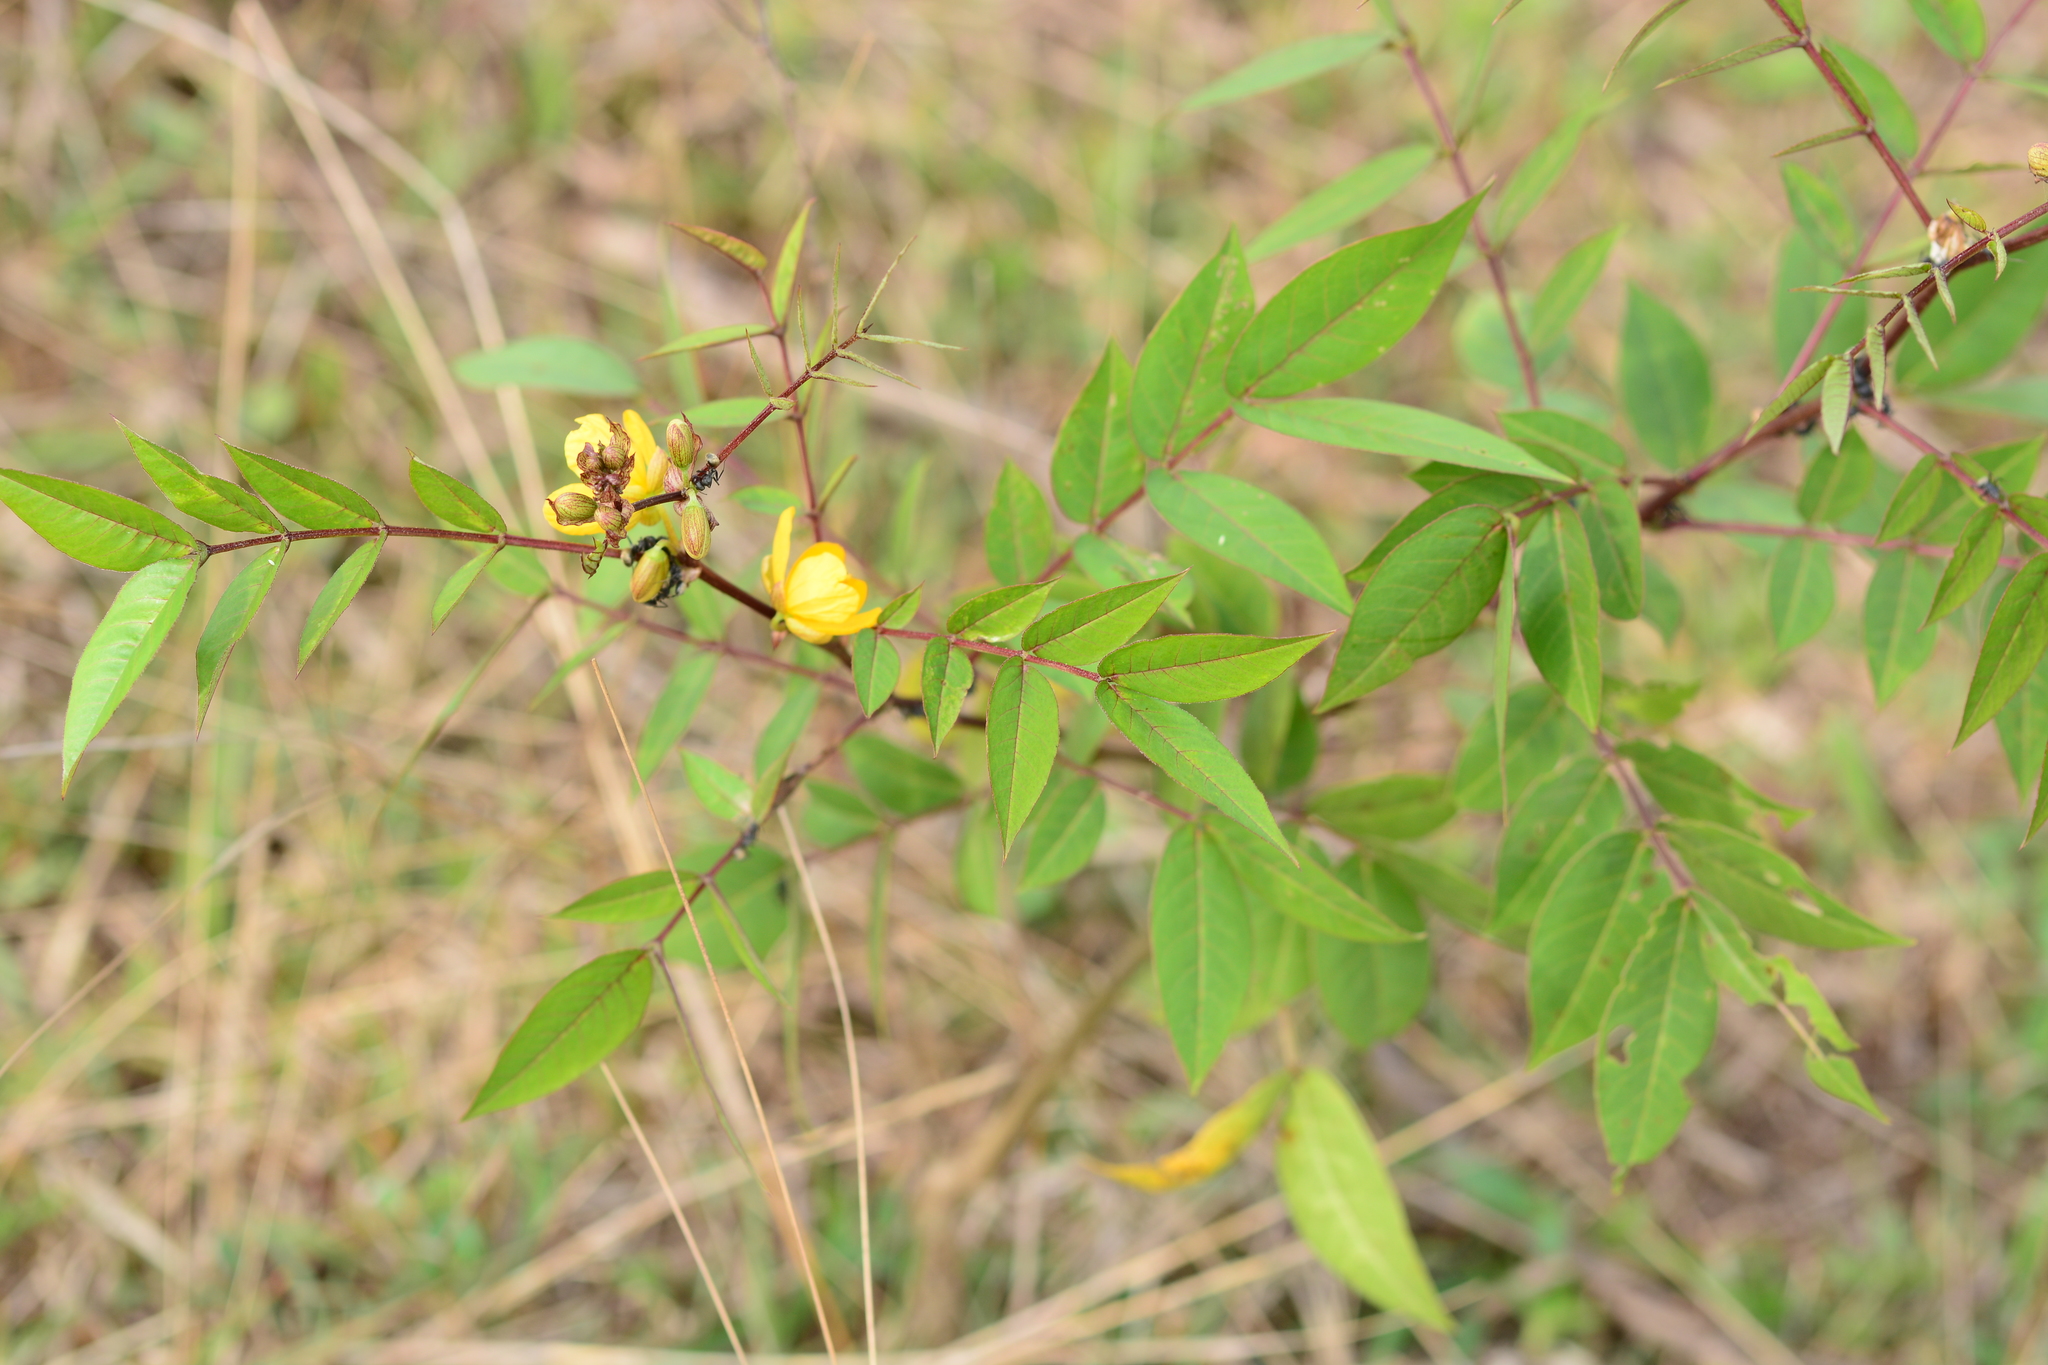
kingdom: Plantae
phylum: Tracheophyta
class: Magnoliopsida
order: Fabales
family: Fabaceae
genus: Senna
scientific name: Senna occidentalis
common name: Septicweed
